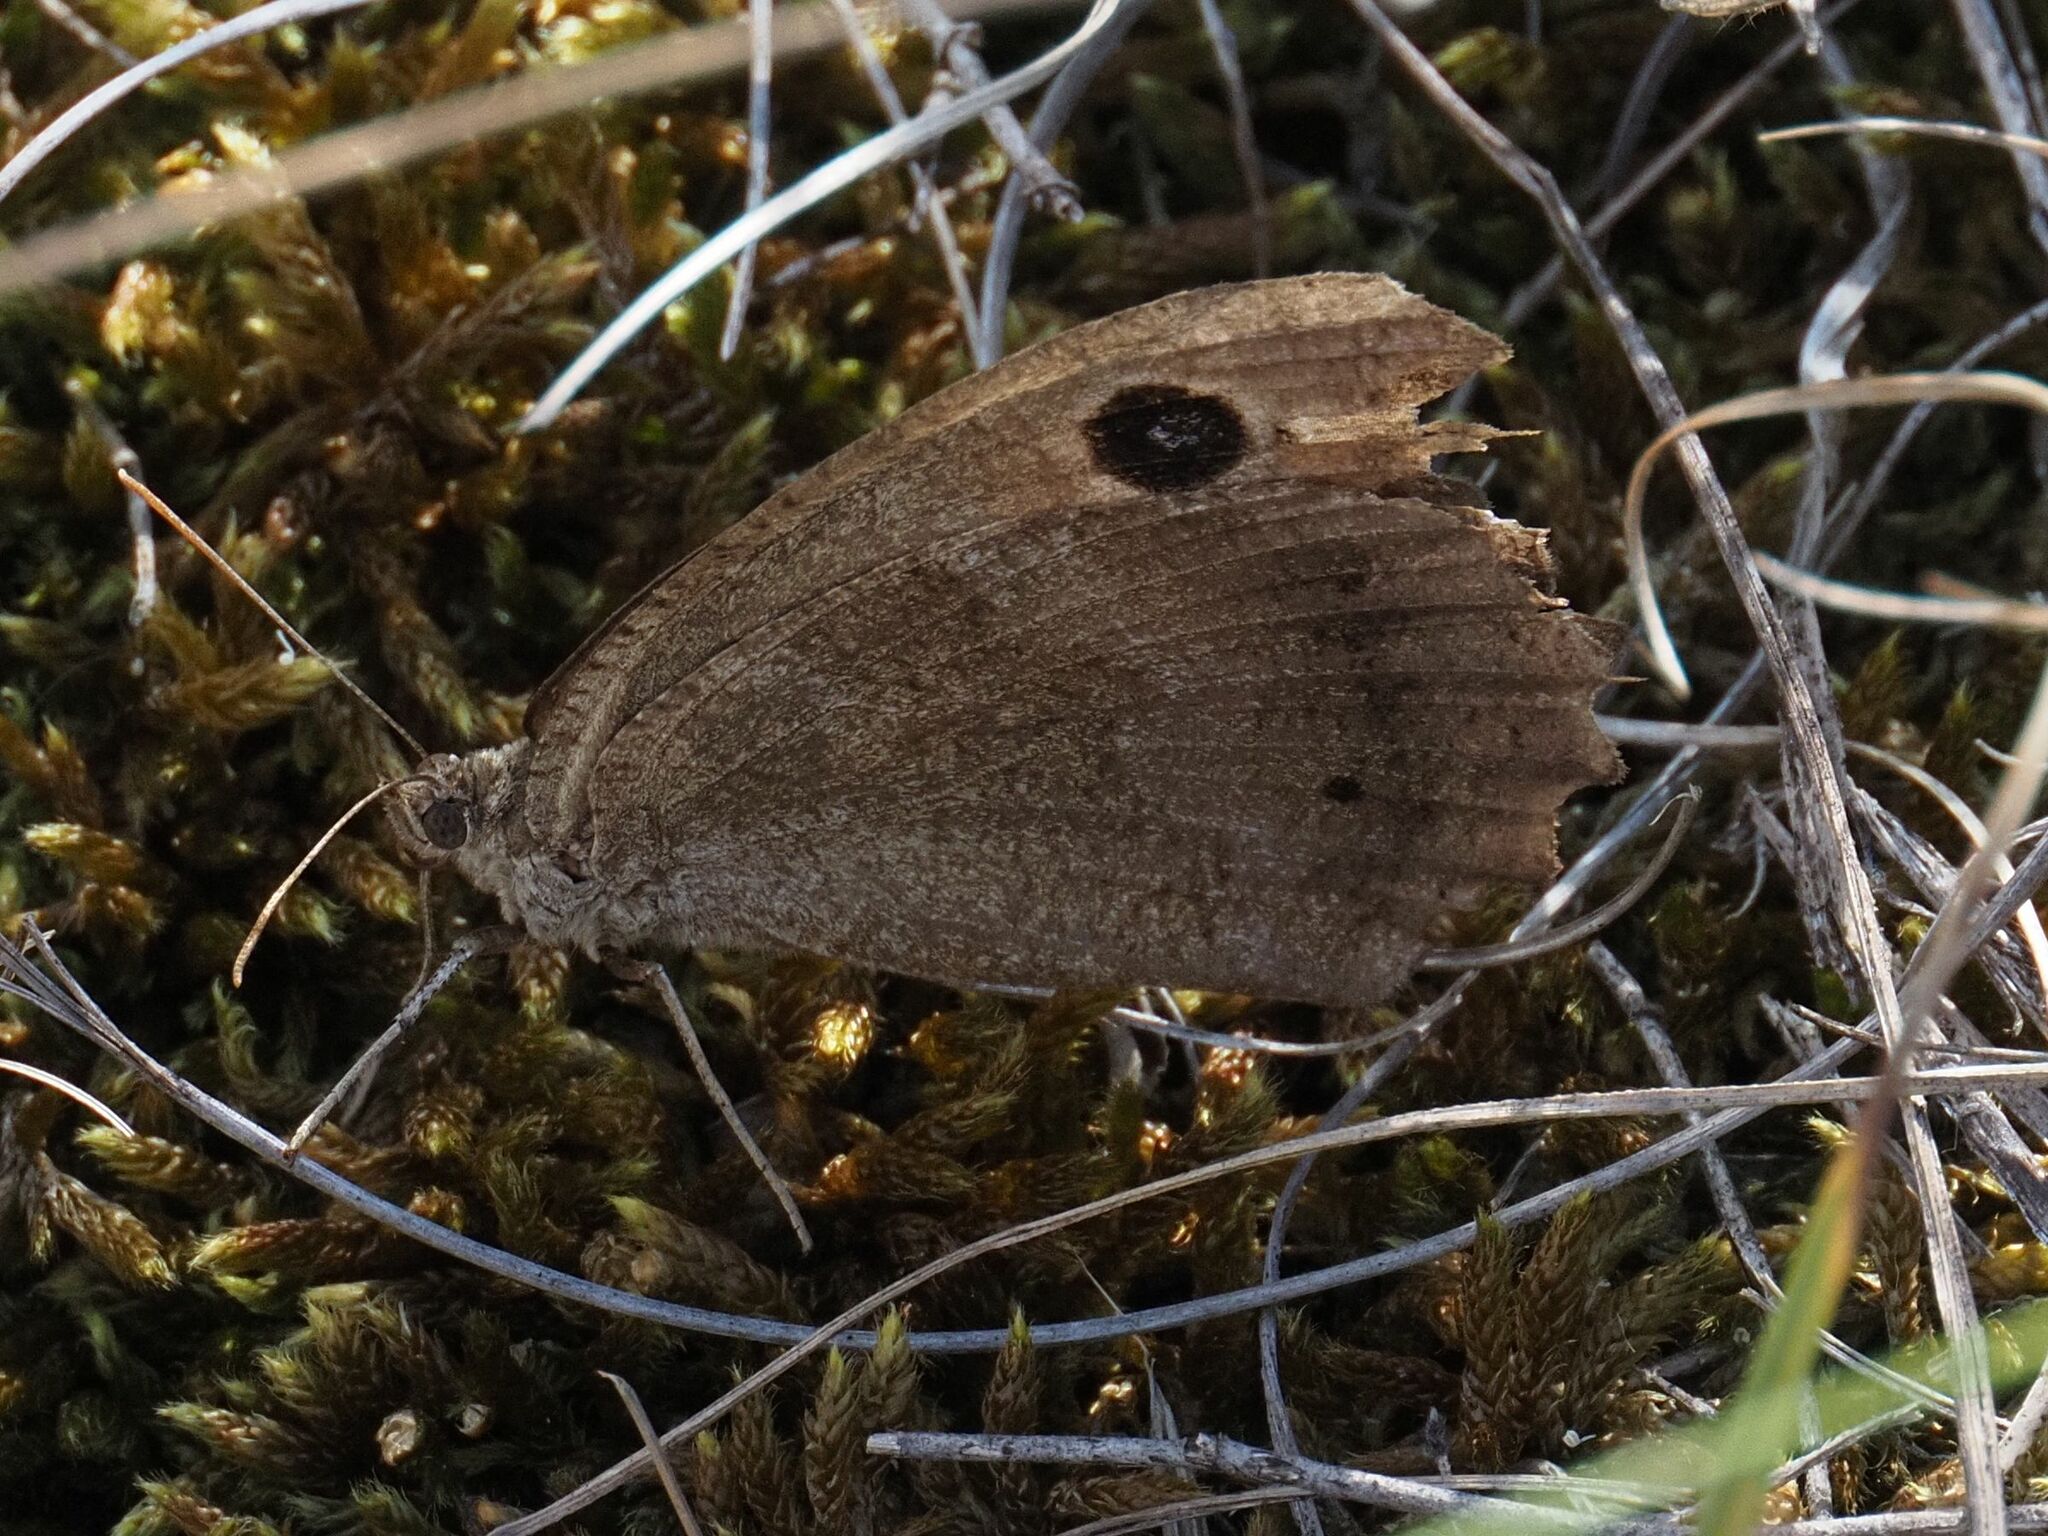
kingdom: Animalia
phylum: Arthropoda
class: Insecta
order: Lepidoptera
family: Nymphalidae
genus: Minois
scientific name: Minois dryas
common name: Dryad
